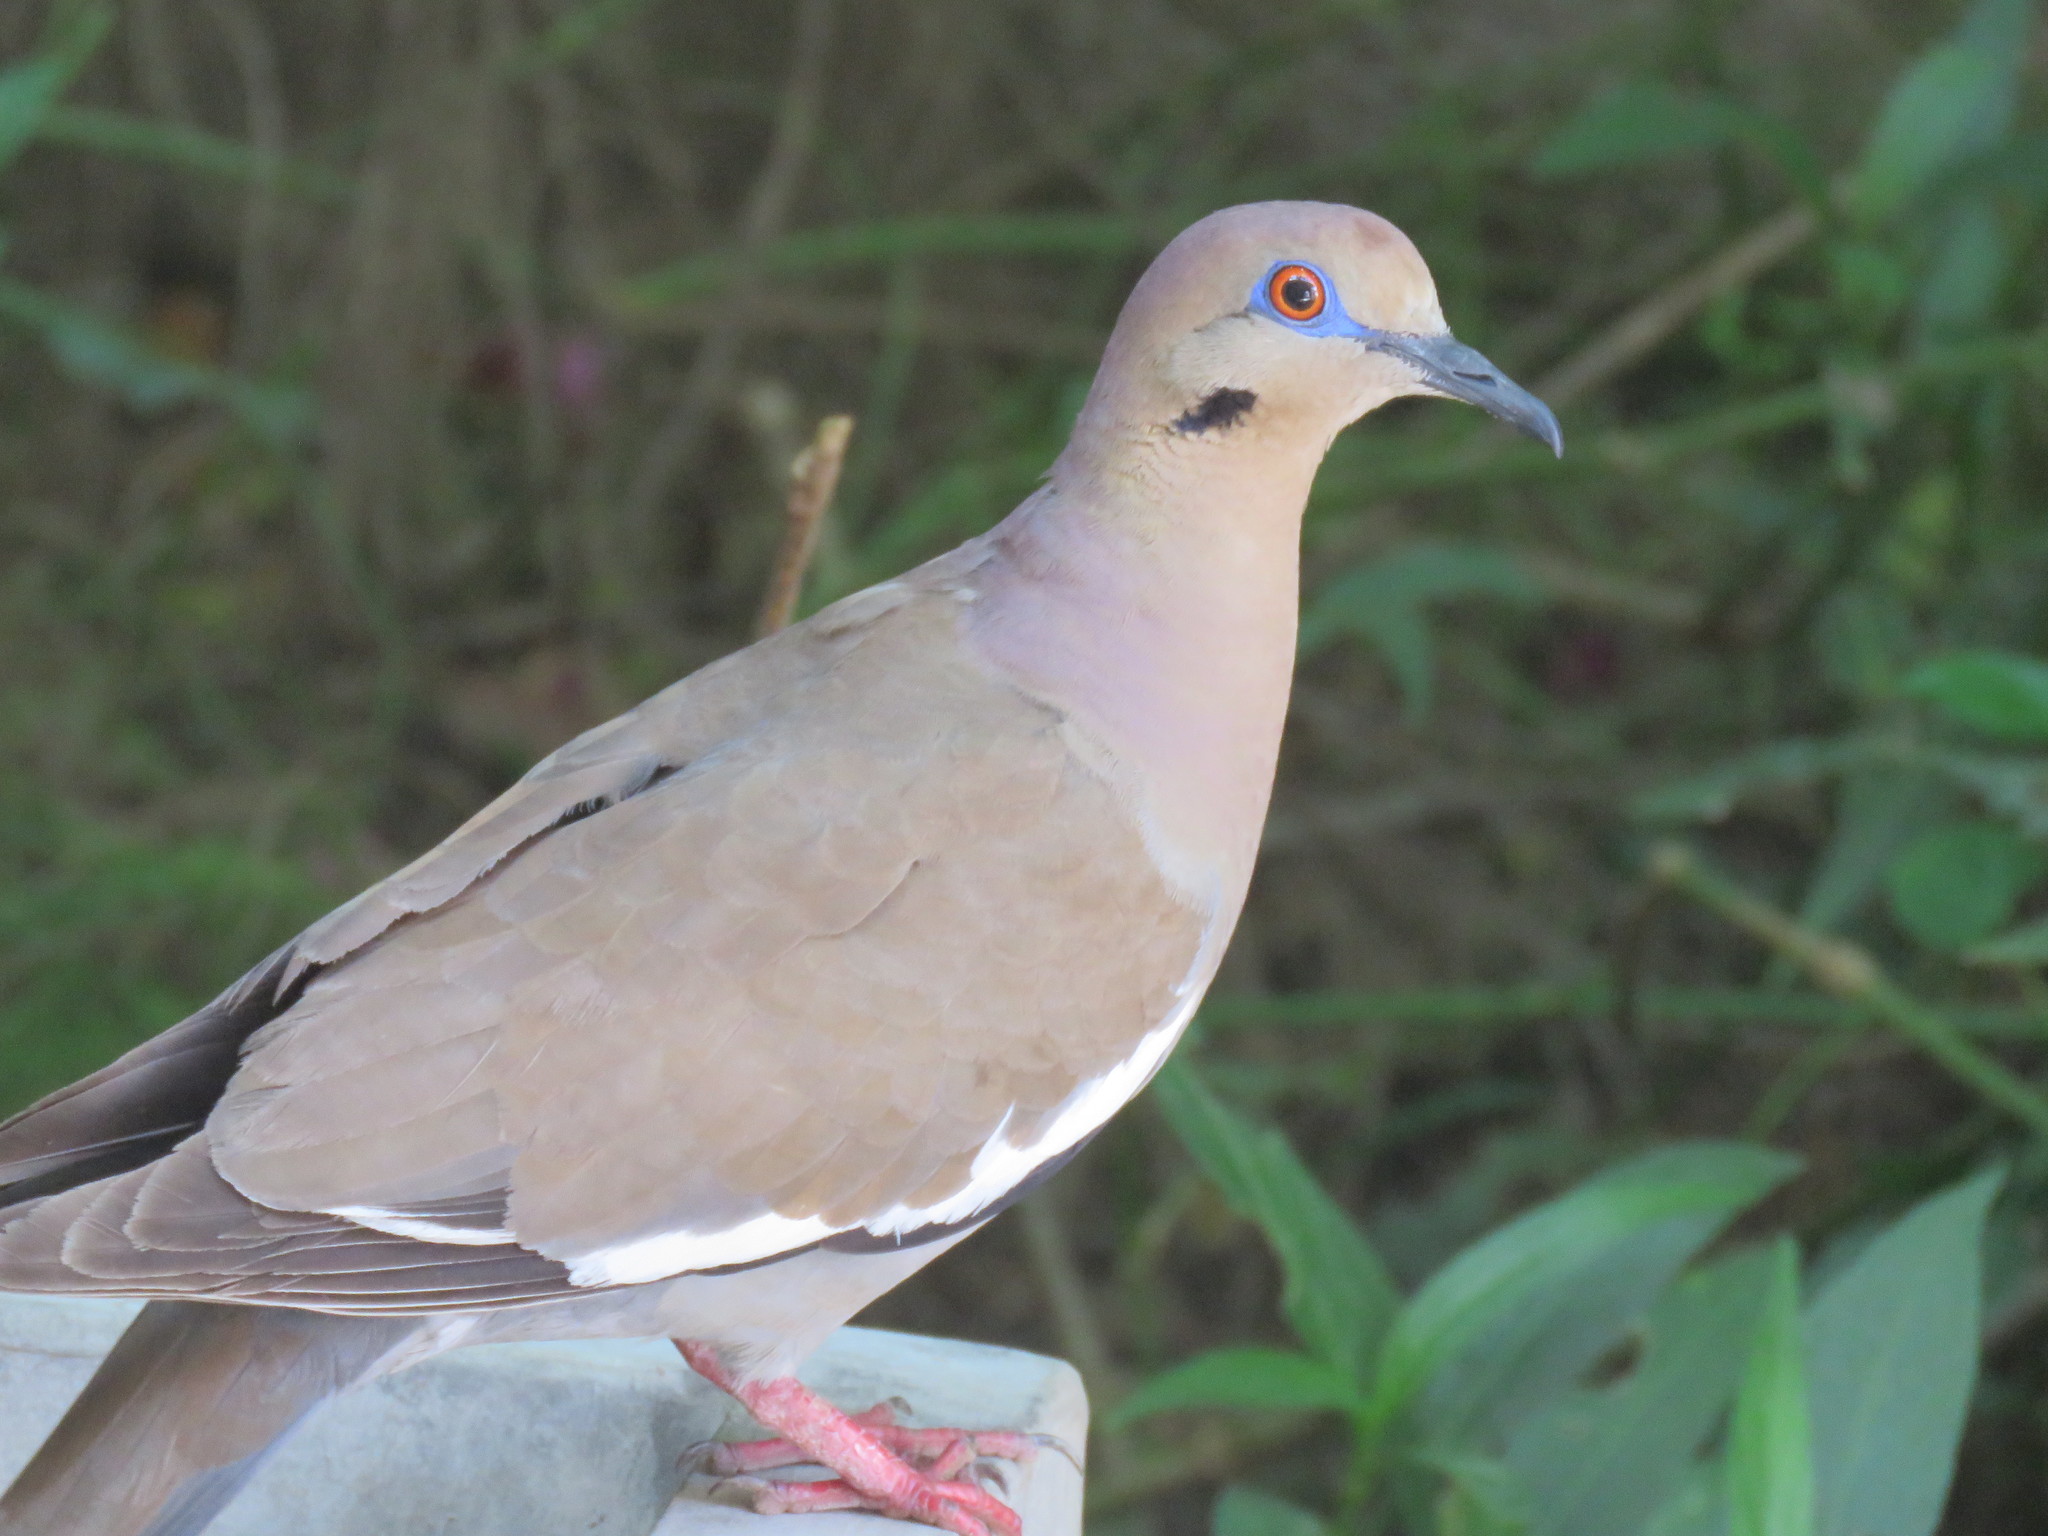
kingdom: Animalia
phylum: Chordata
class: Aves
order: Columbiformes
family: Columbidae
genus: Zenaida
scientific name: Zenaida asiatica
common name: White-winged dove
